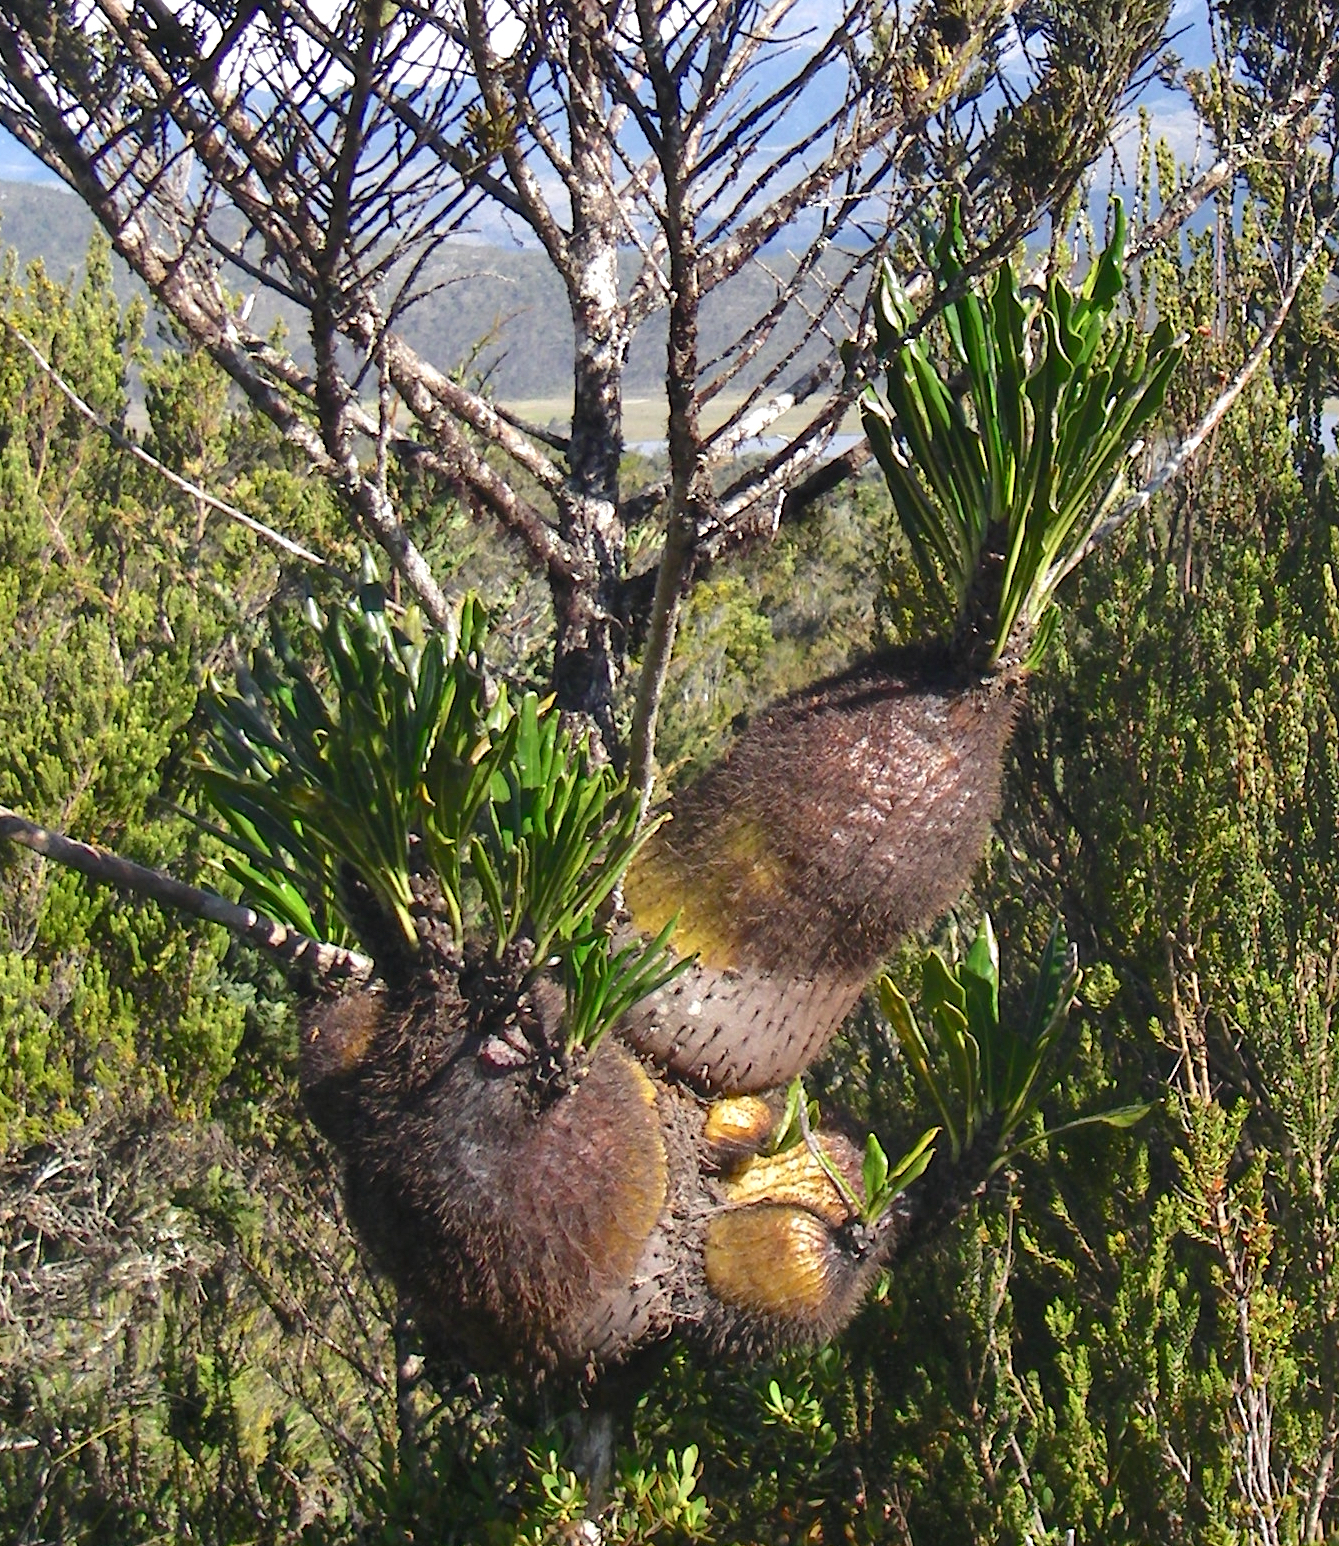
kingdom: Plantae
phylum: Tracheophyta
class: Magnoliopsida
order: Gentianales
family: Rubiaceae
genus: Myrmecodia
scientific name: Myrmecodia lamii
